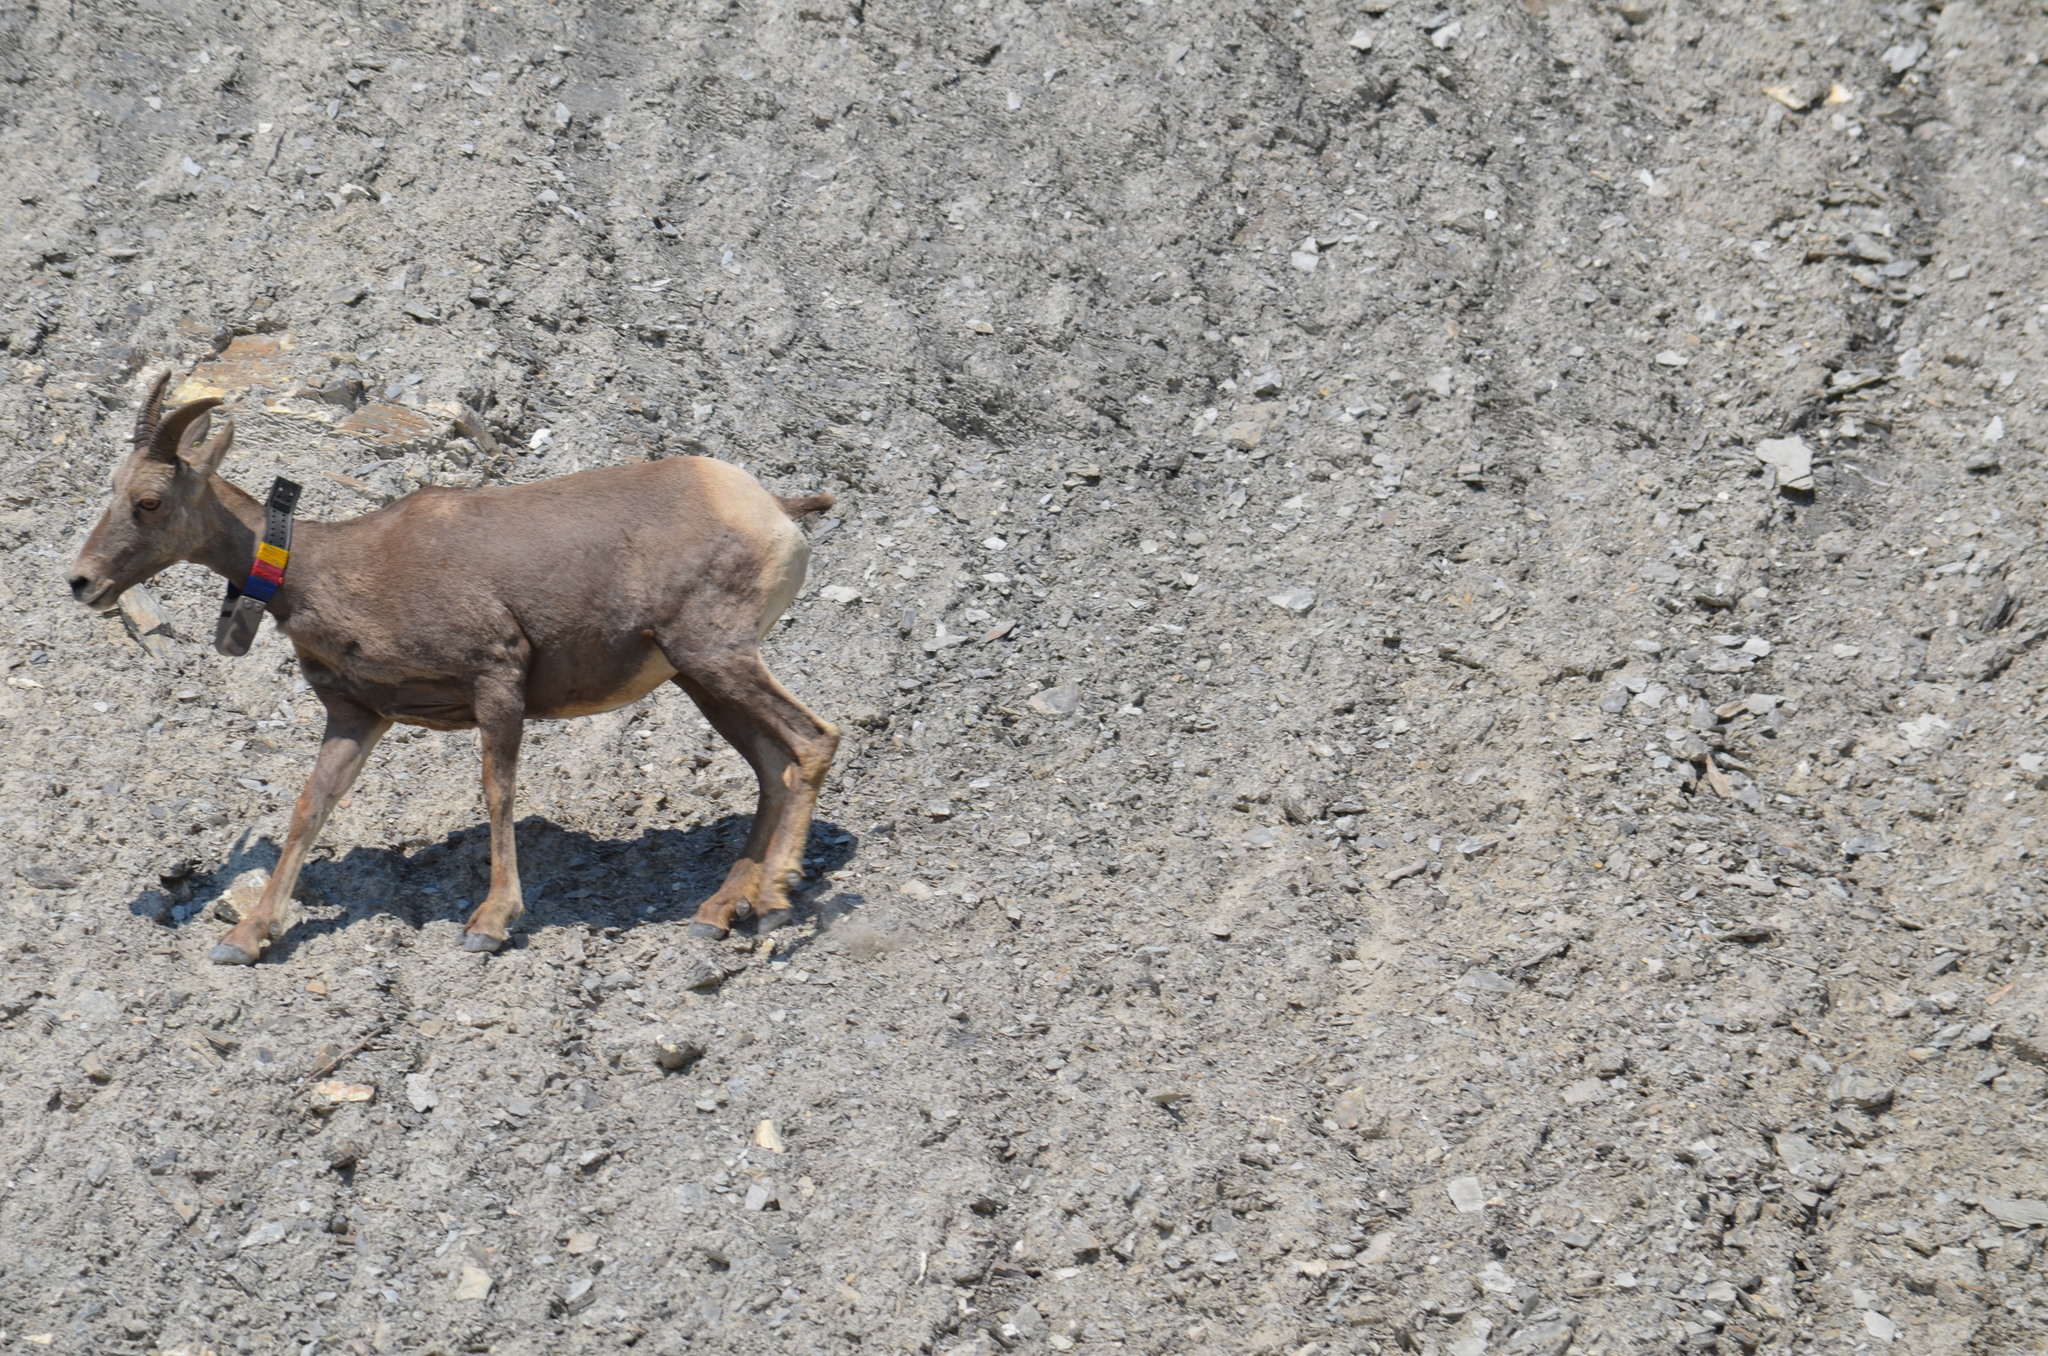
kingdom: Animalia
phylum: Chordata
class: Mammalia
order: Artiodactyla
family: Bovidae
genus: Ovis
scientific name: Ovis canadensis
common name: Bighorn sheep
